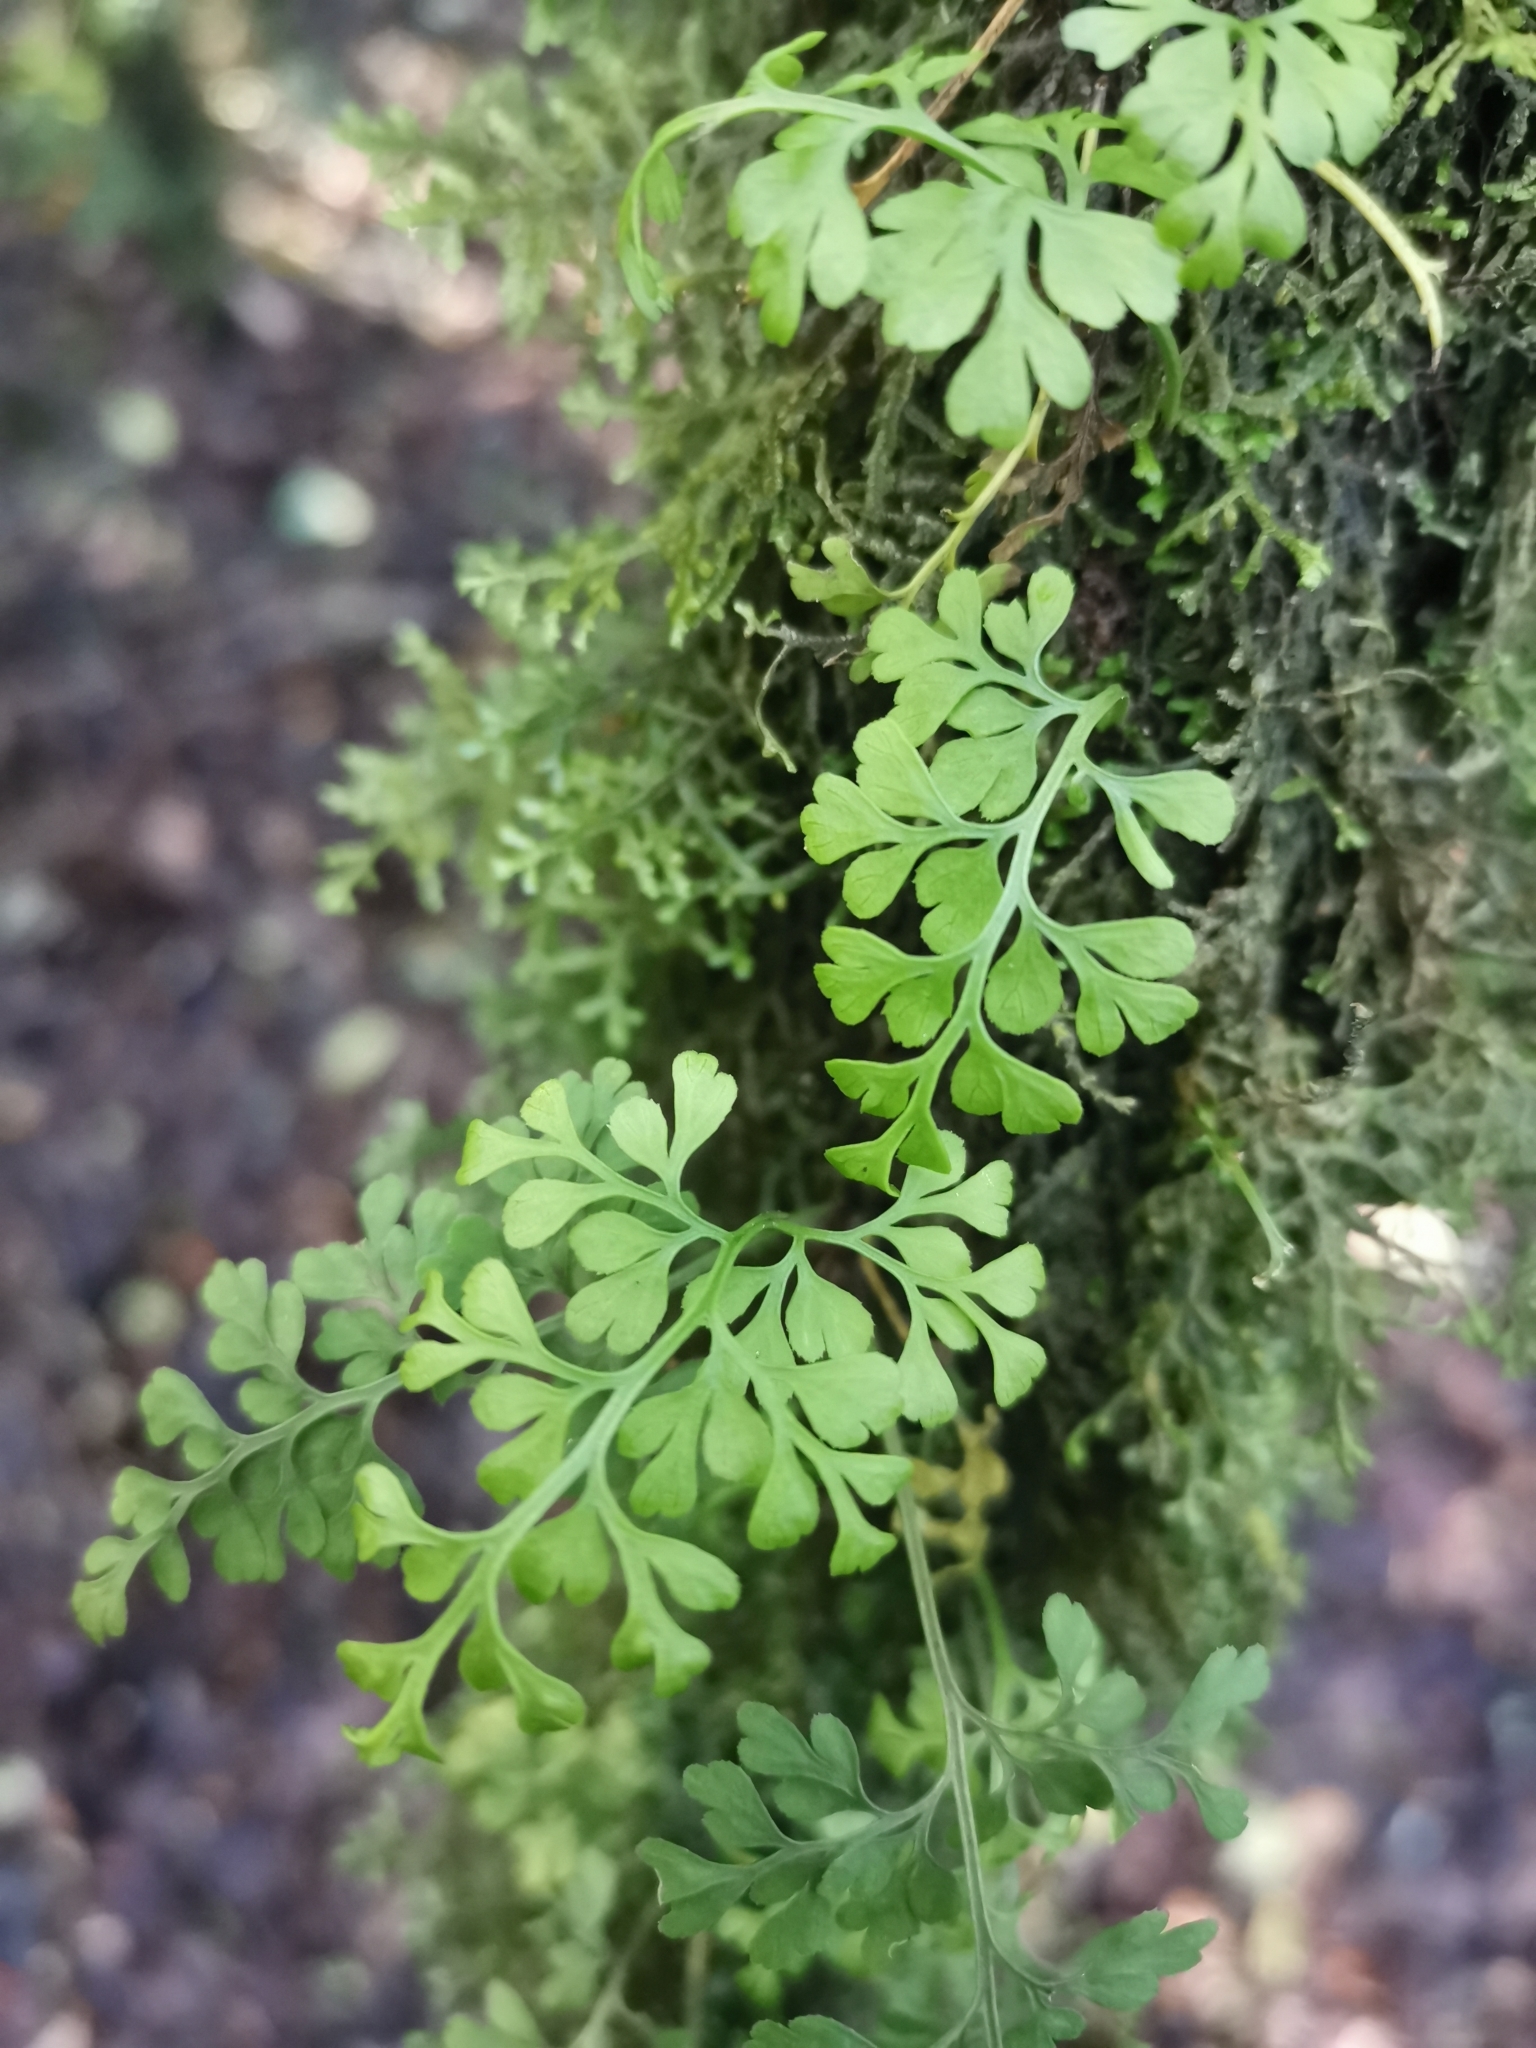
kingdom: Plantae
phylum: Tracheophyta
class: Polypodiopsida
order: Polypodiales
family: Aspleniaceae
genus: Asplenium
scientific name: Asplenium dareoides
